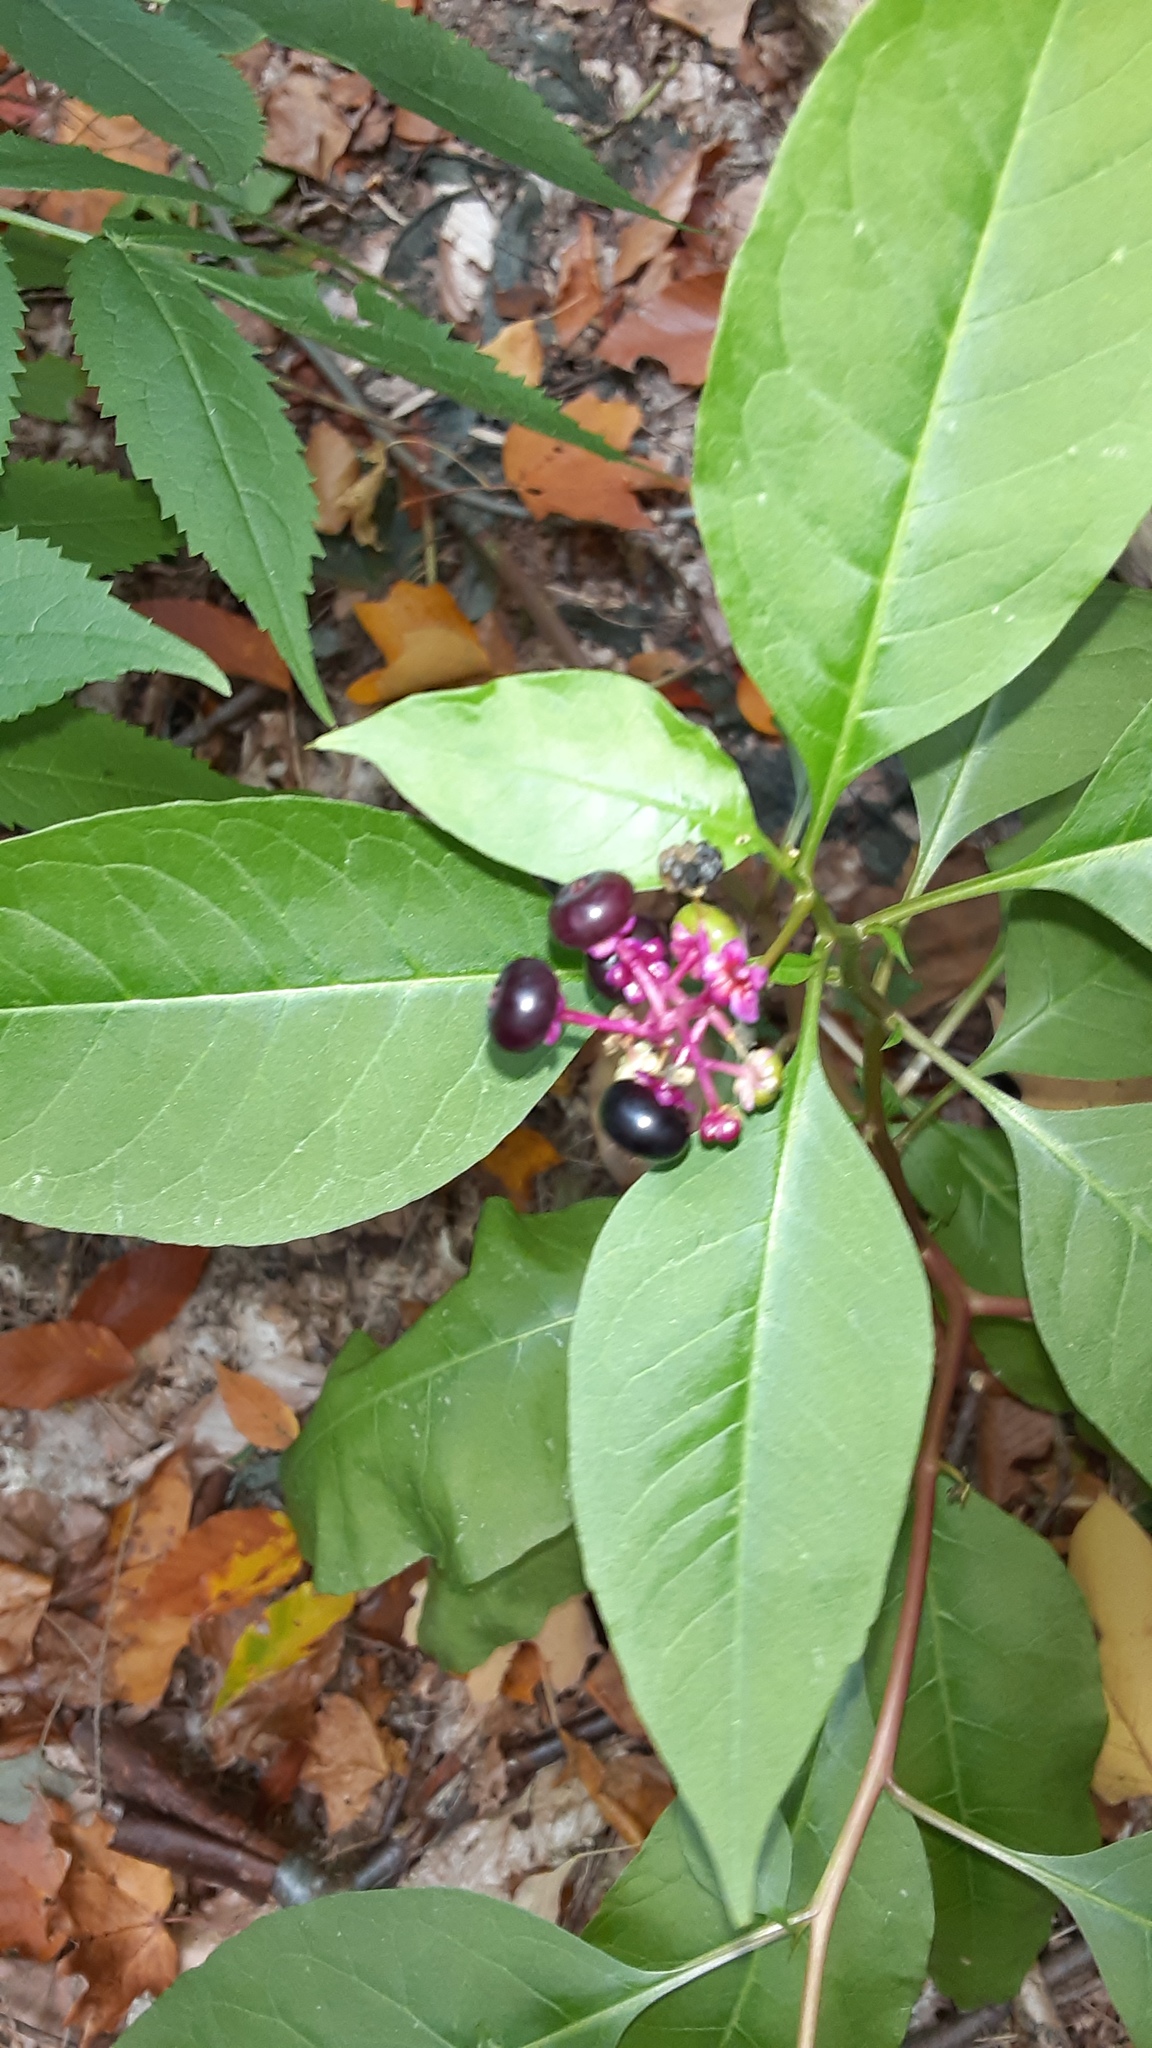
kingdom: Plantae
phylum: Tracheophyta
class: Magnoliopsida
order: Caryophyllales
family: Phytolaccaceae
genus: Phytolacca
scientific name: Phytolacca americana
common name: American pokeweed
